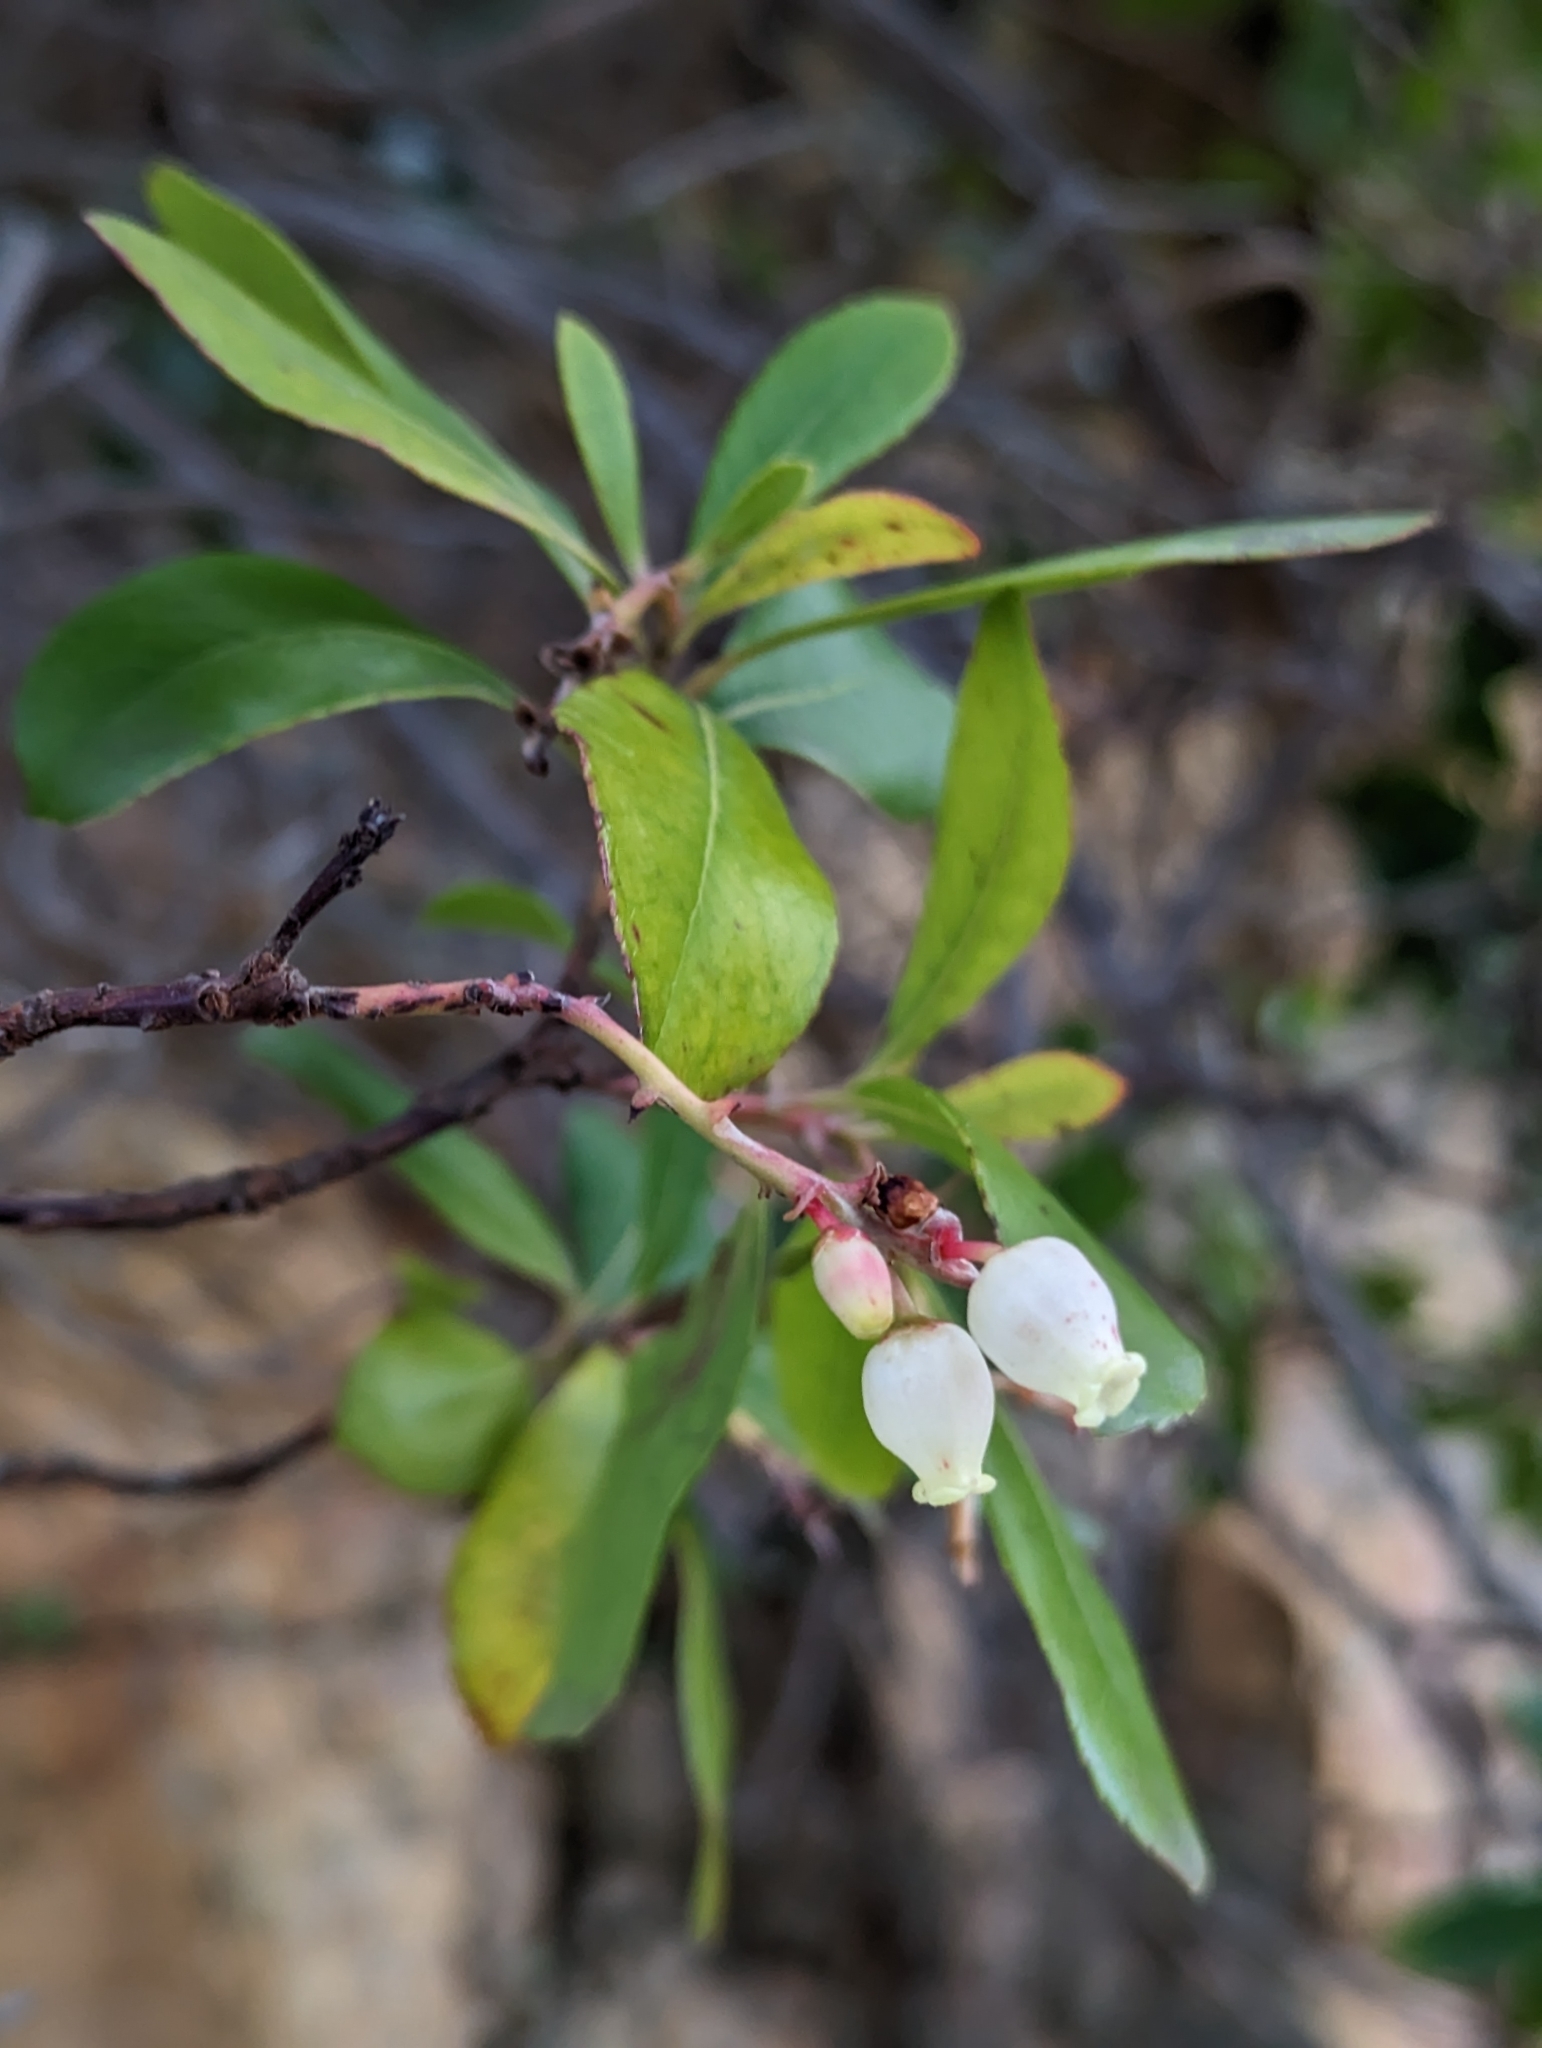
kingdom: Plantae
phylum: Tracheophyta
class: Magnoliopsida
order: Ericales
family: Ericaceae
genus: Arbutus
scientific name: Arbutus unedo
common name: Strawberry-tree
